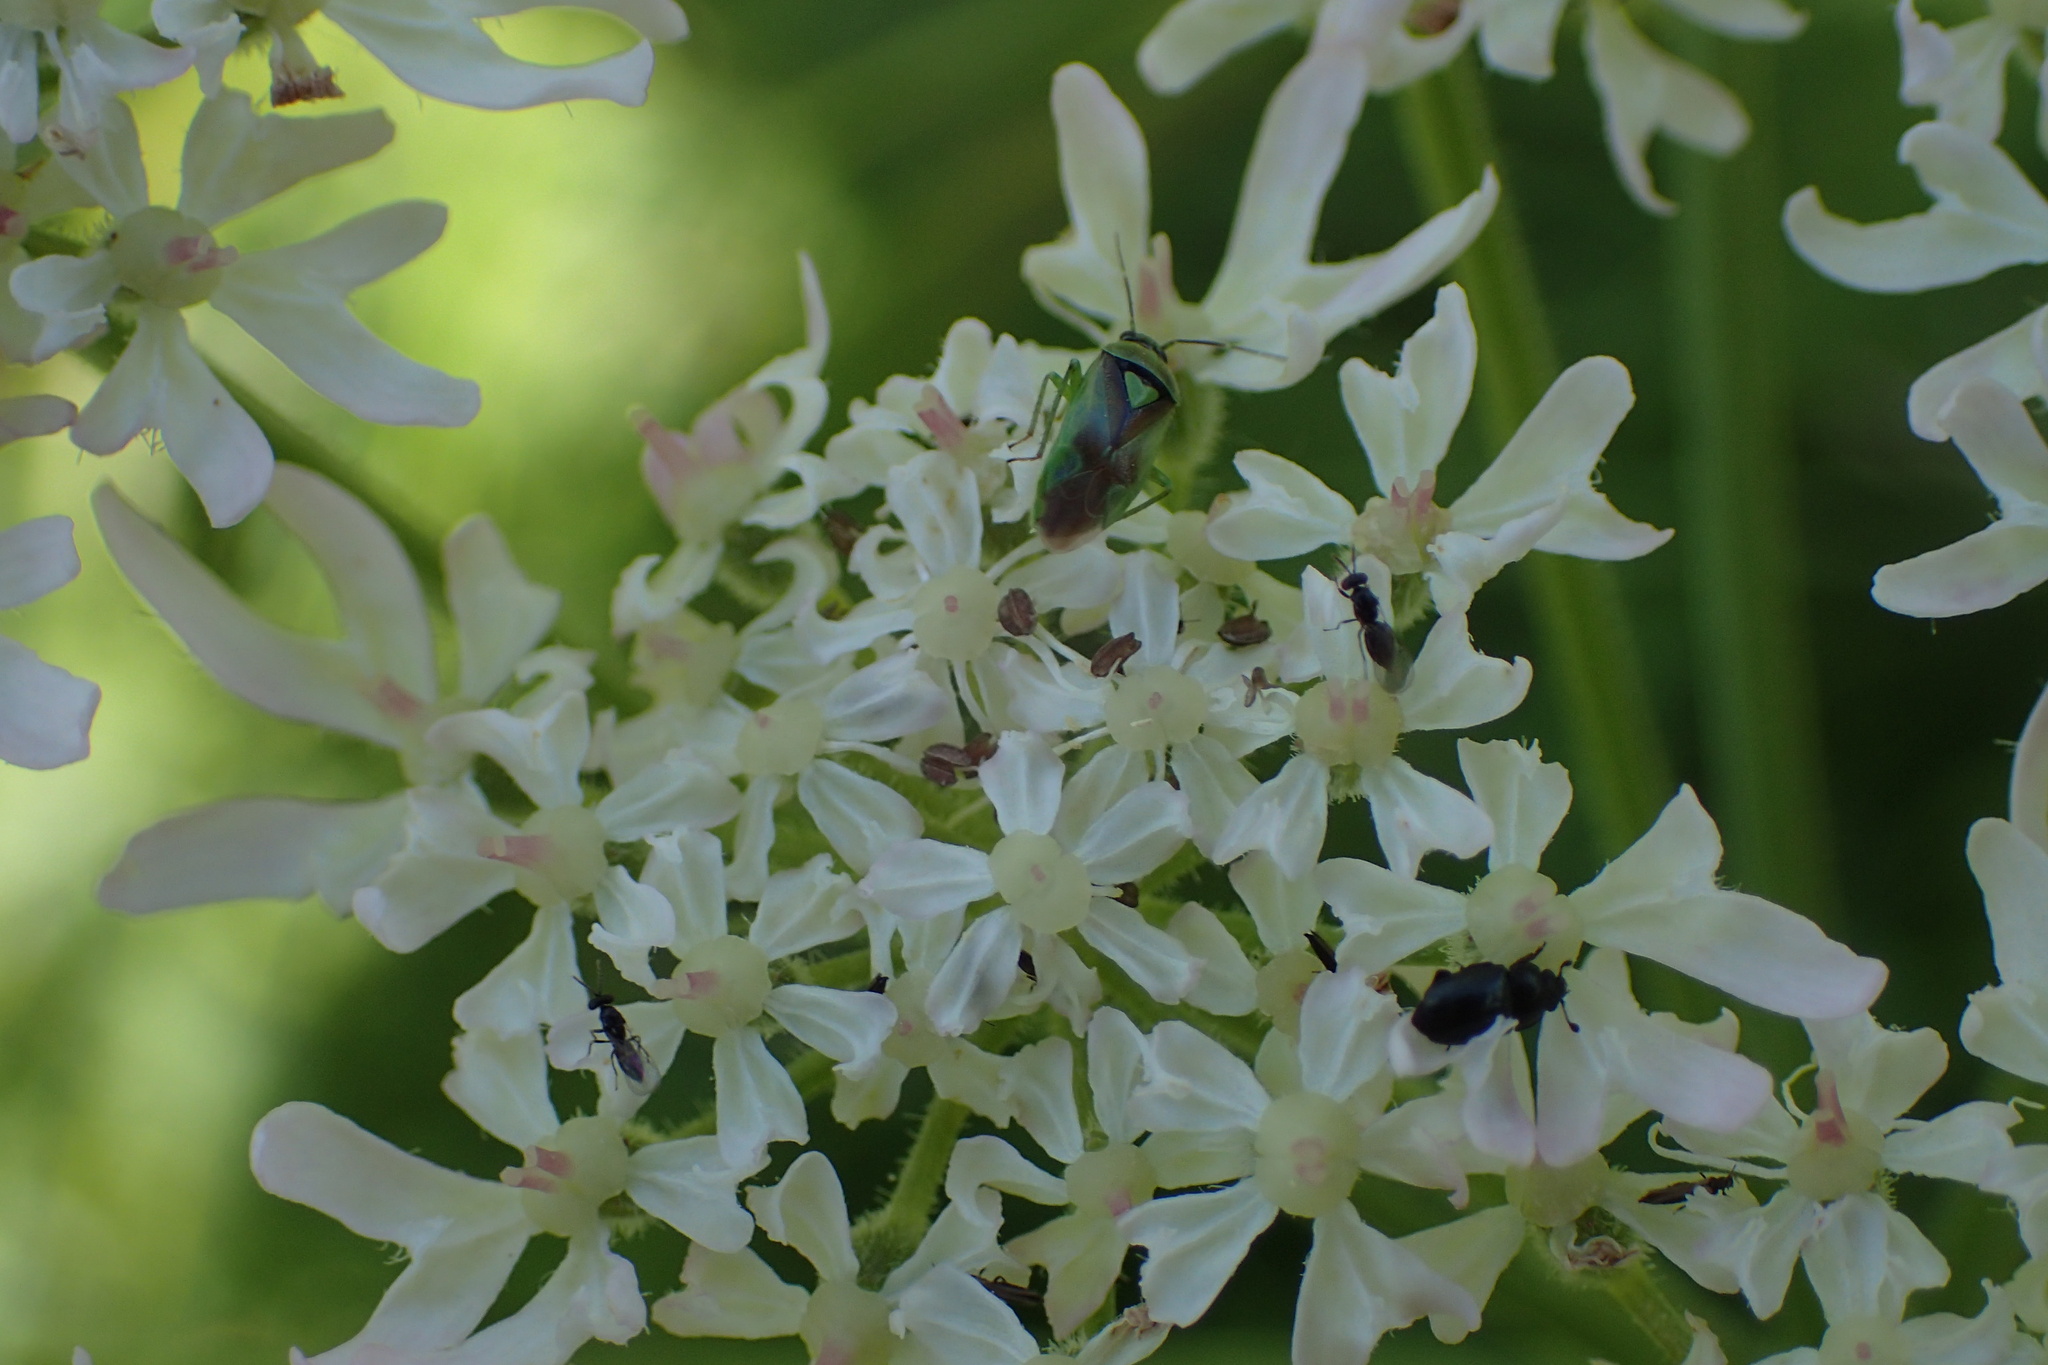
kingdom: Animalia
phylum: Arthropoda
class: Insecta
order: Hemiptera
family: Miridae
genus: Orthops
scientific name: Orthops campestris
